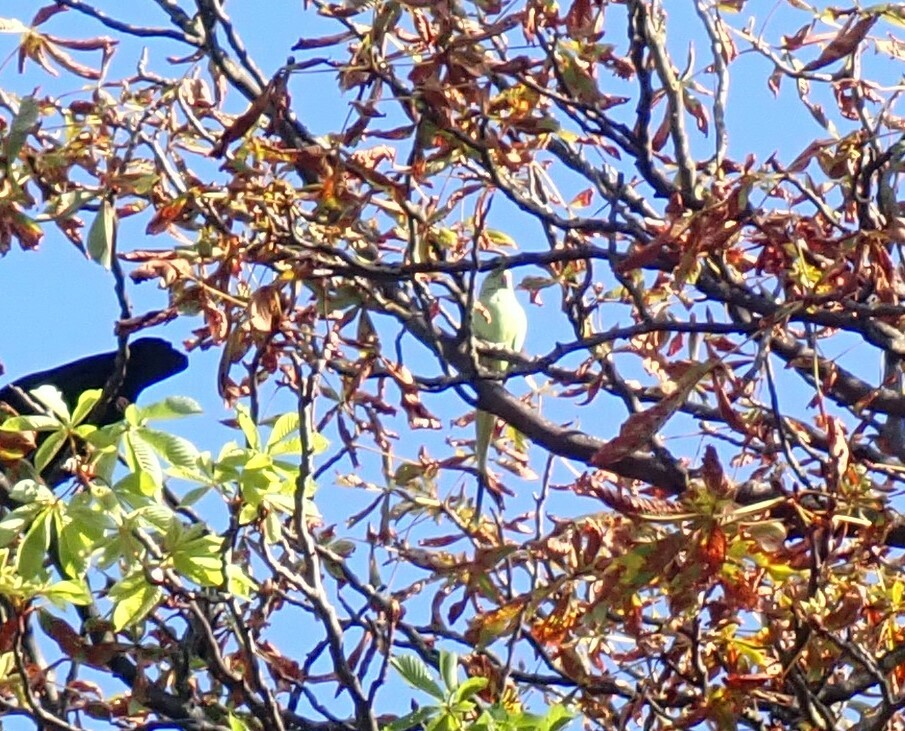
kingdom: Animalia
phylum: Chordata
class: Aves
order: Psittaciformes
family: Psittacidae
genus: Psittacula
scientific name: Psittacula krameri
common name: Rose-ringed parakeet
